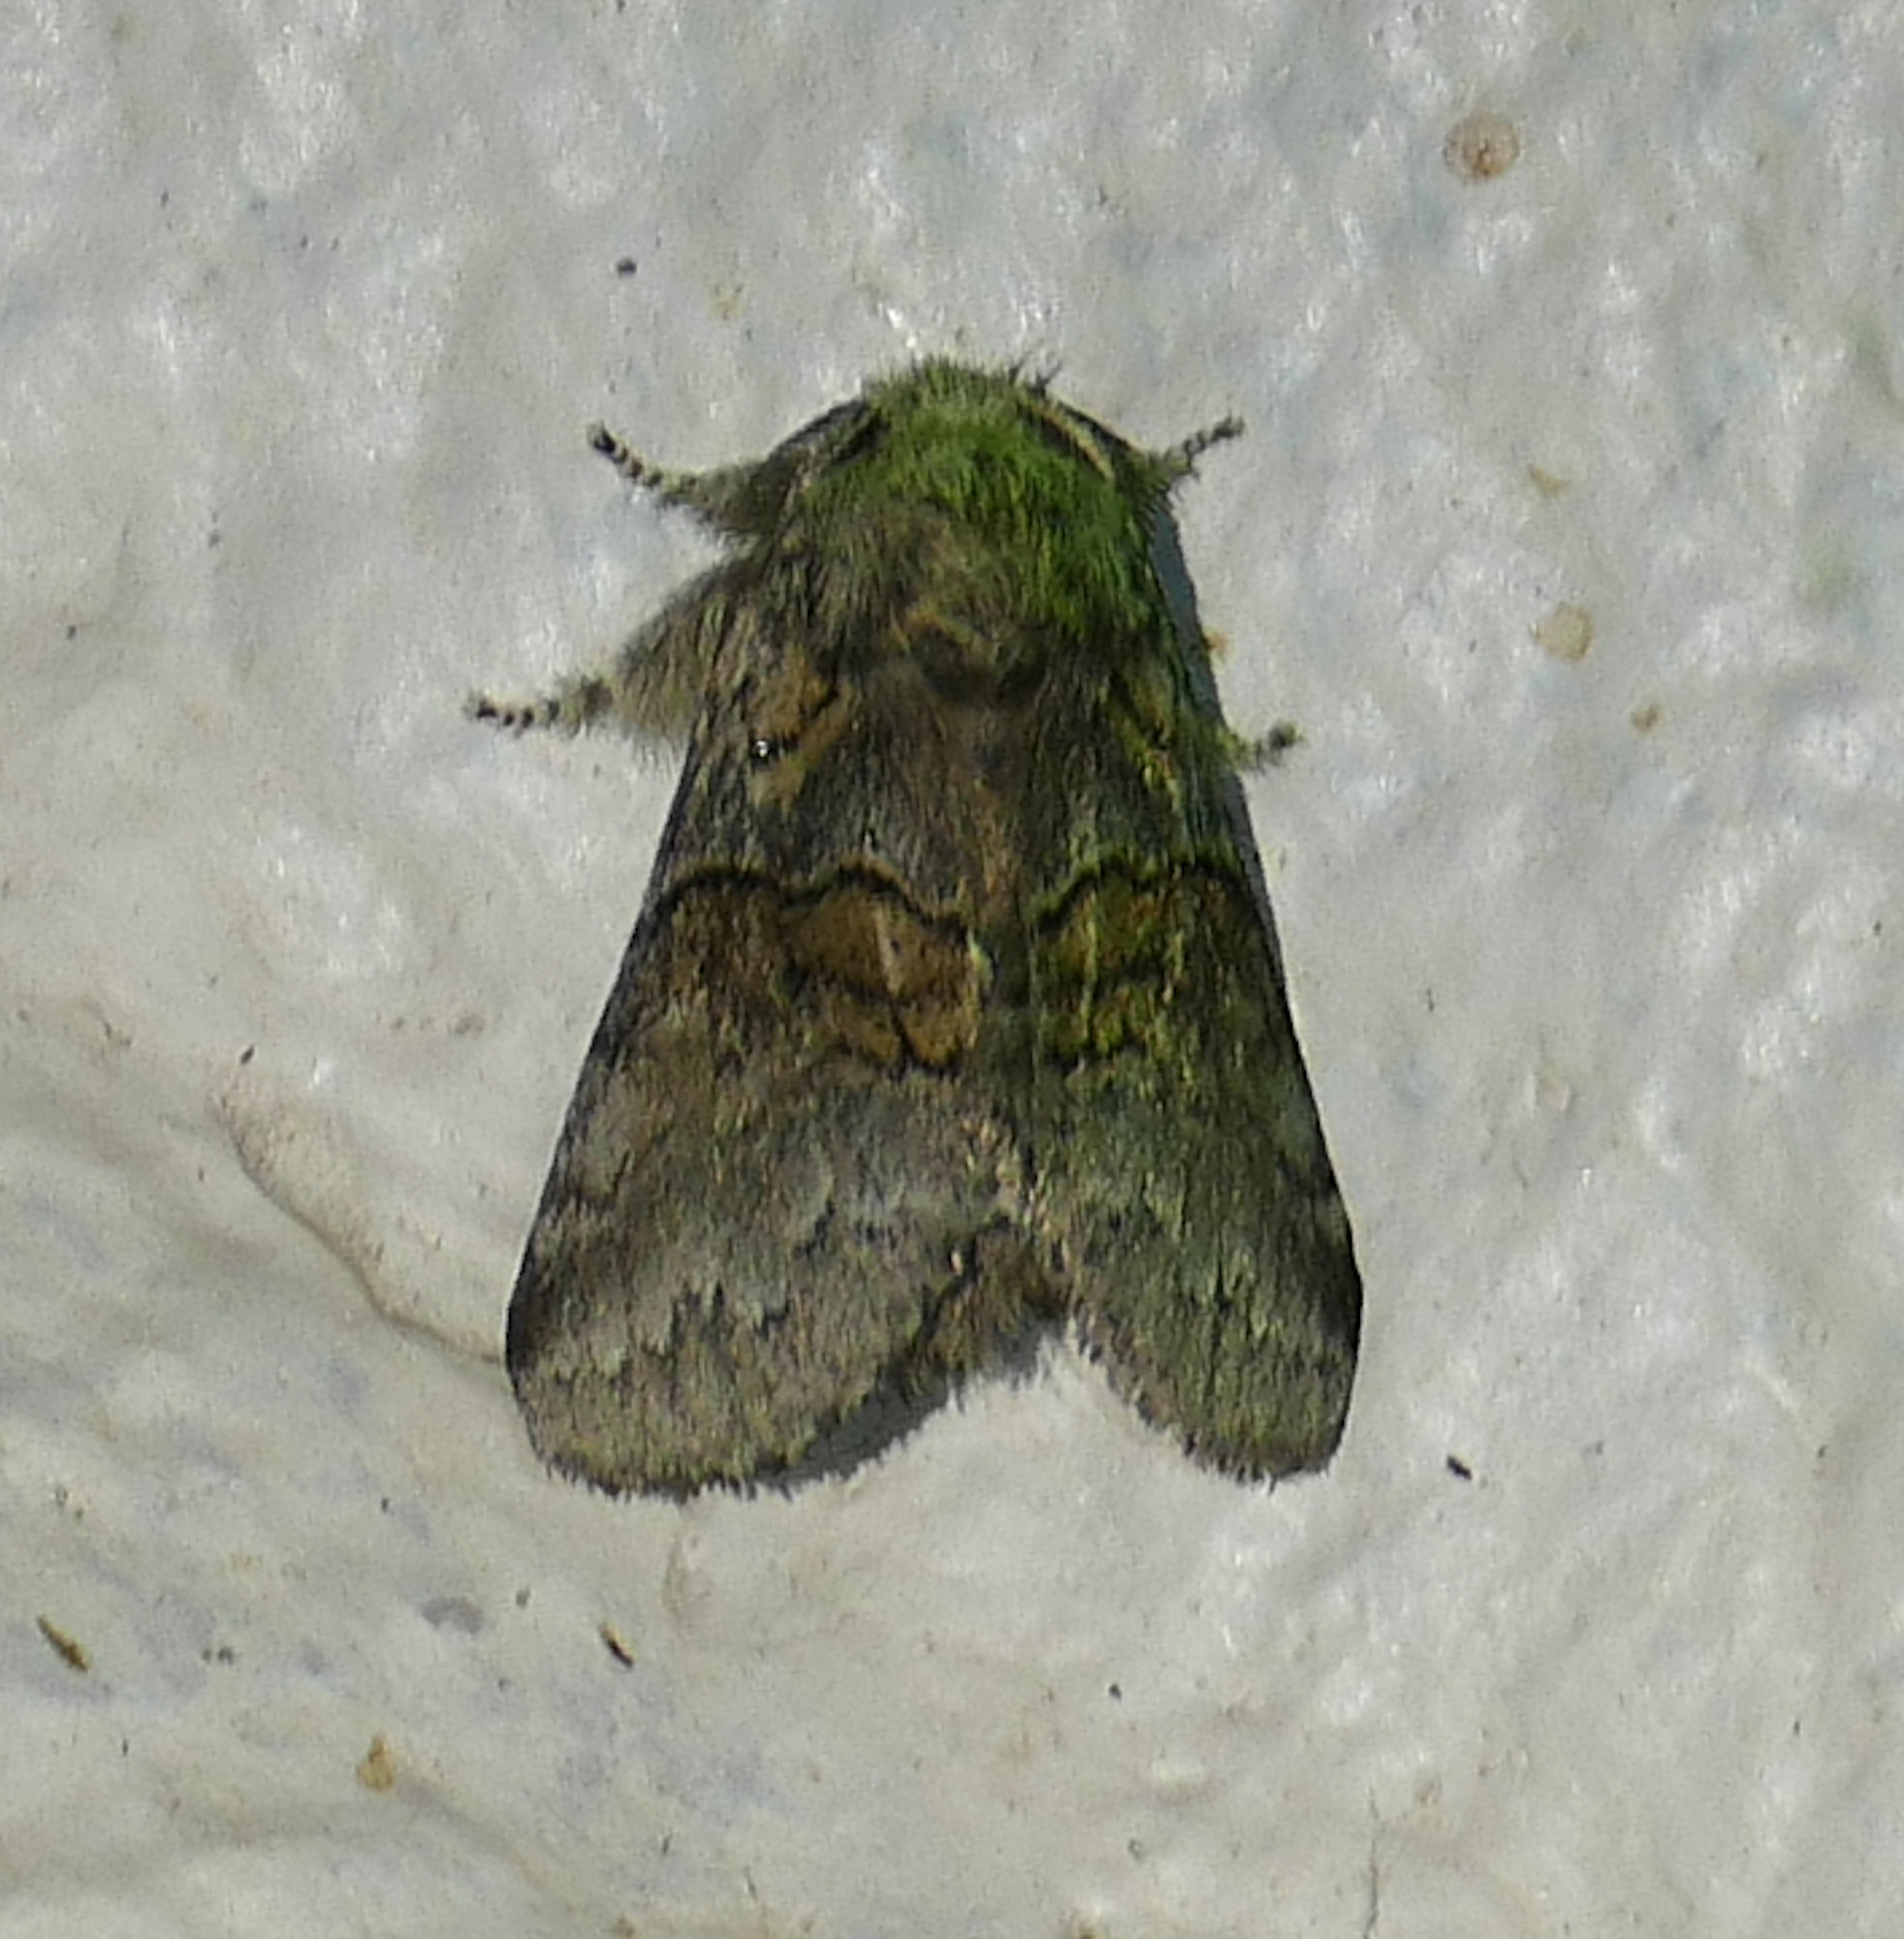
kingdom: Animalia
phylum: Arthropoda
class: Insecta
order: Lepidoptera
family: Notodontidae
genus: Gluphisia
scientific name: Gluphisia septentrionis
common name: Common gluphisia
